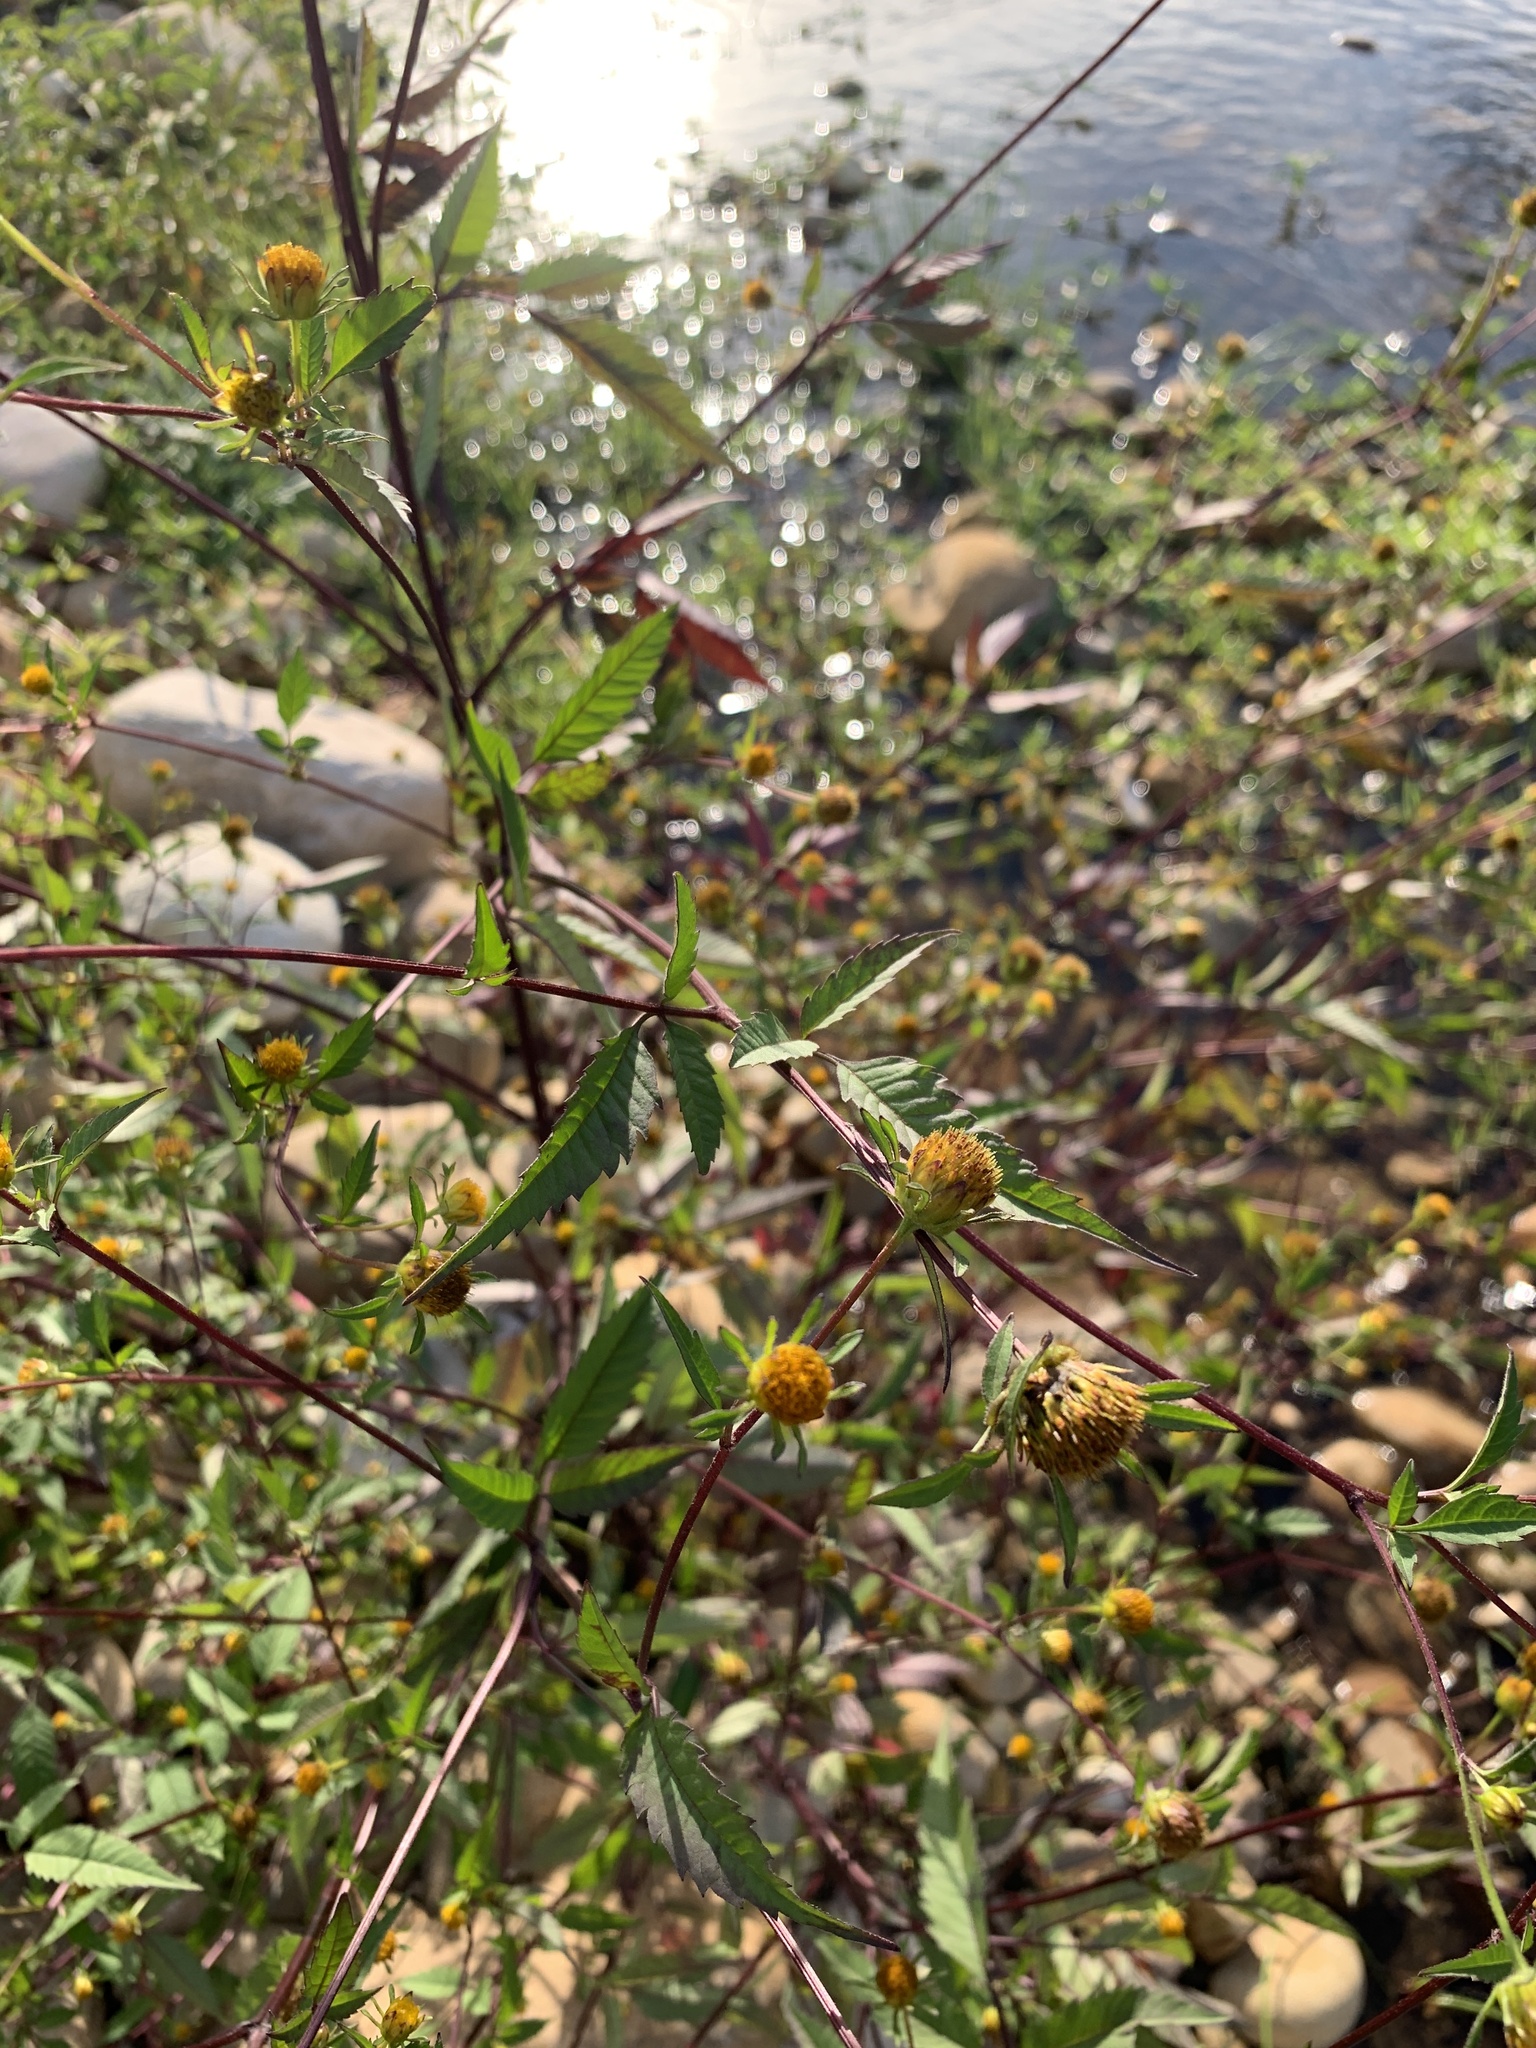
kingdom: Plantae
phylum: Tracheophyta
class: Magnoliopsida
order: Asterales
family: Asteraceae
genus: Bidens
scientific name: Bidens frondosa
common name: Beggarticks
